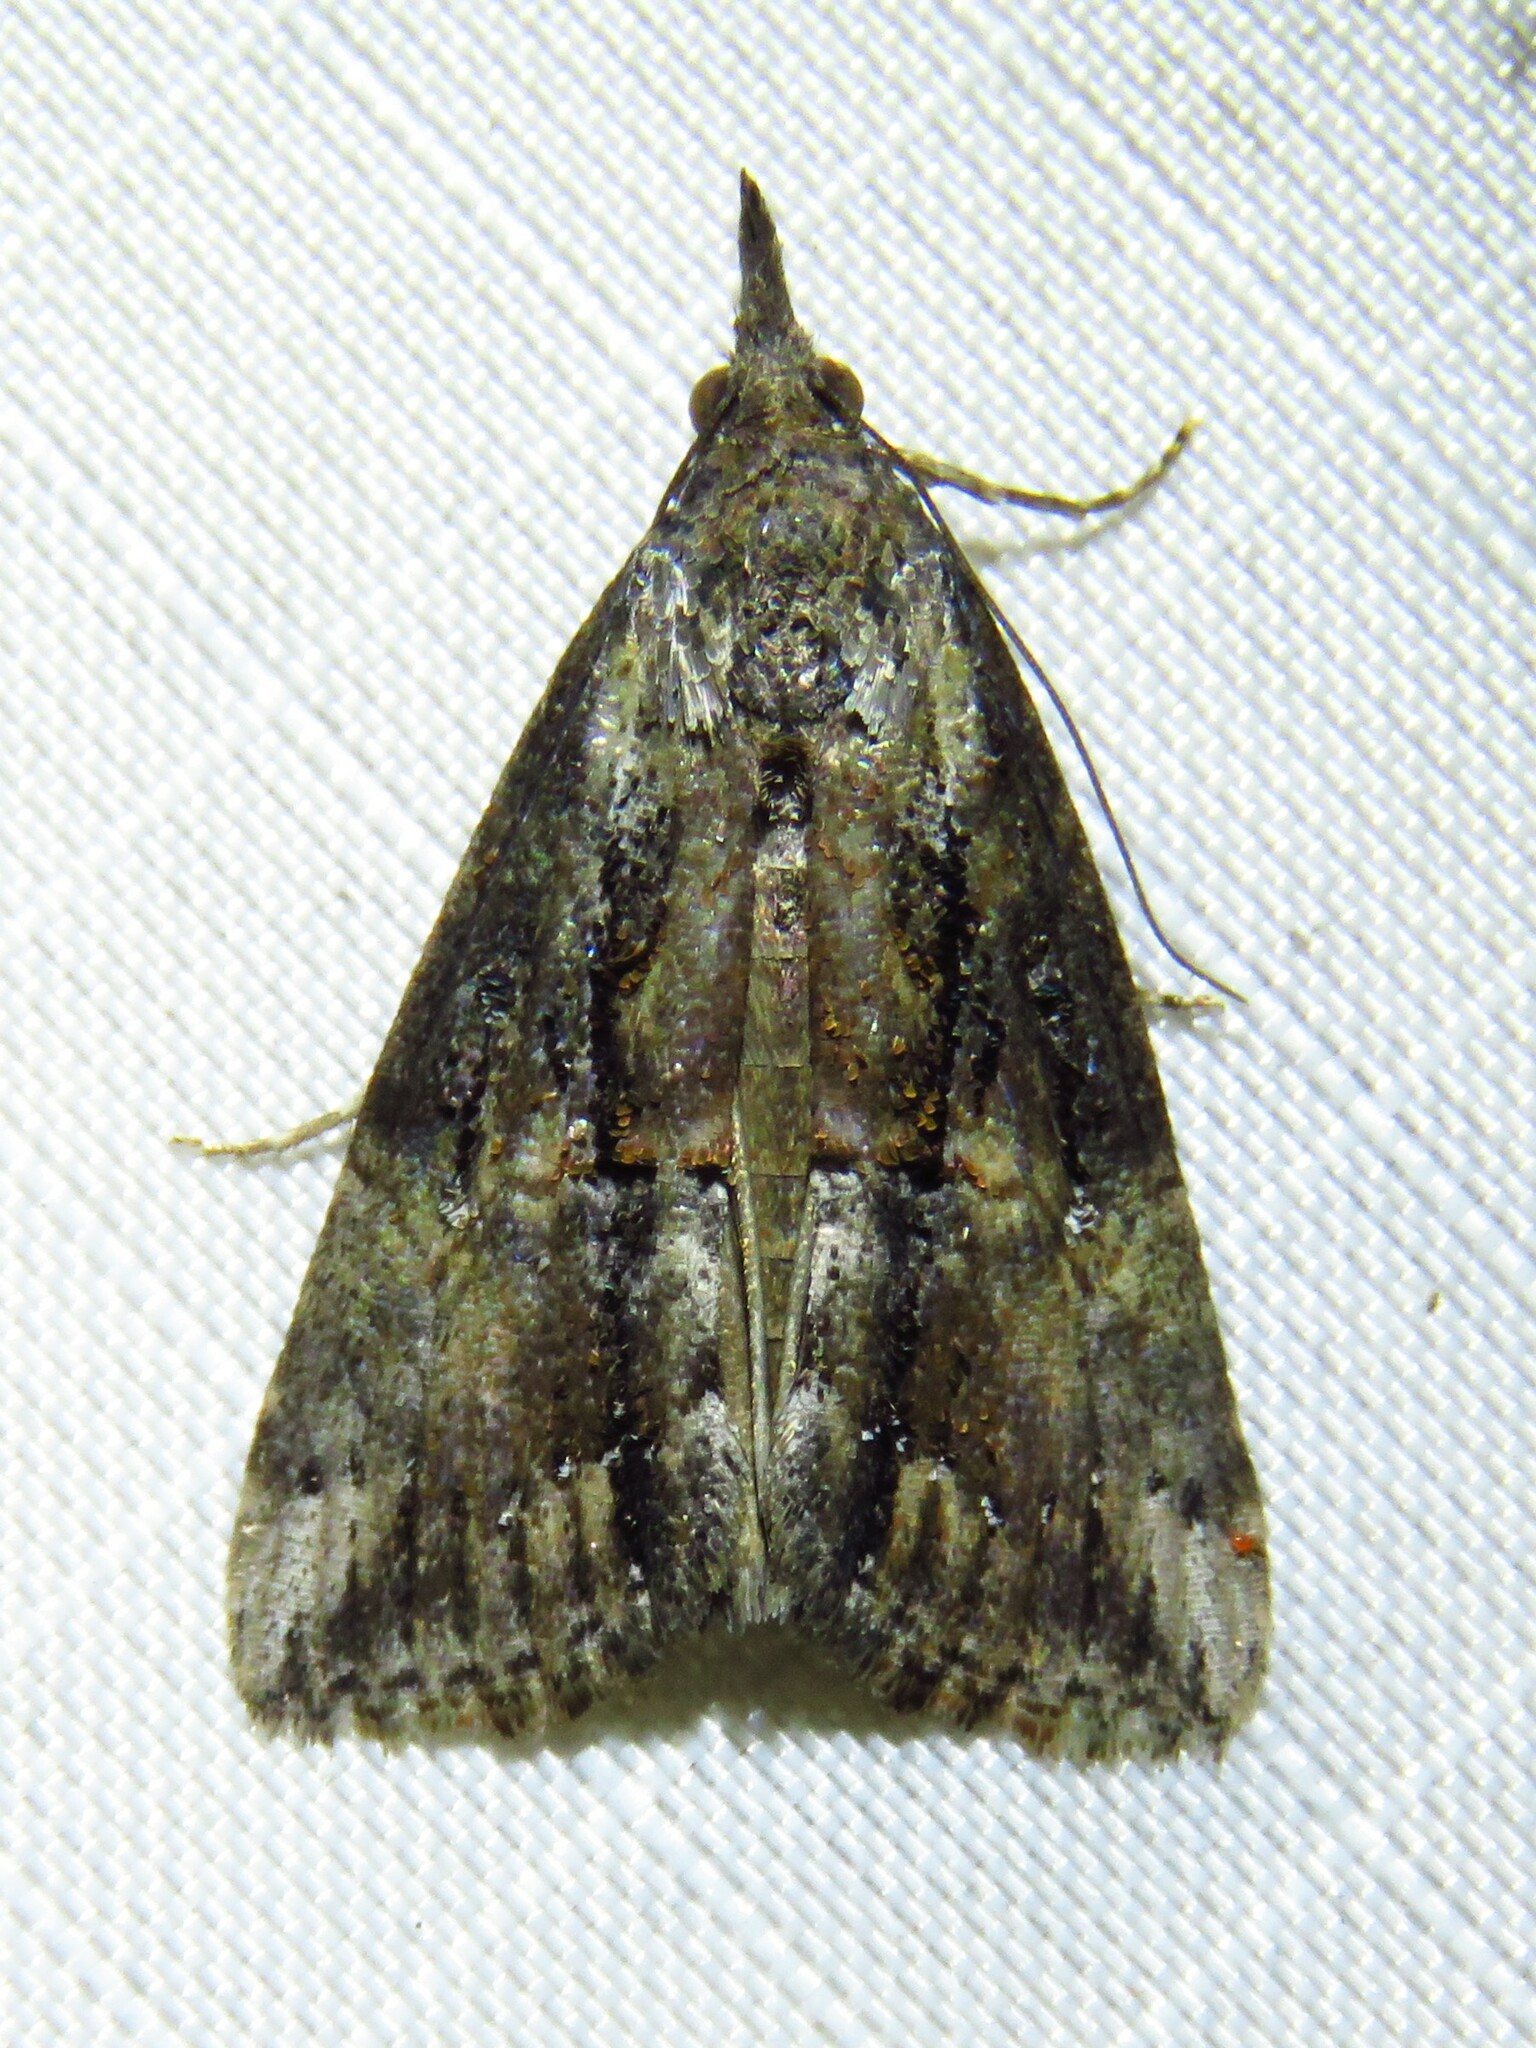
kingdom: Animalia
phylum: Arthropoda
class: Insecta
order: Lepidoptera
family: Erebidae
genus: Hypena
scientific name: Hypena scabra
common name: Green cloverworm
